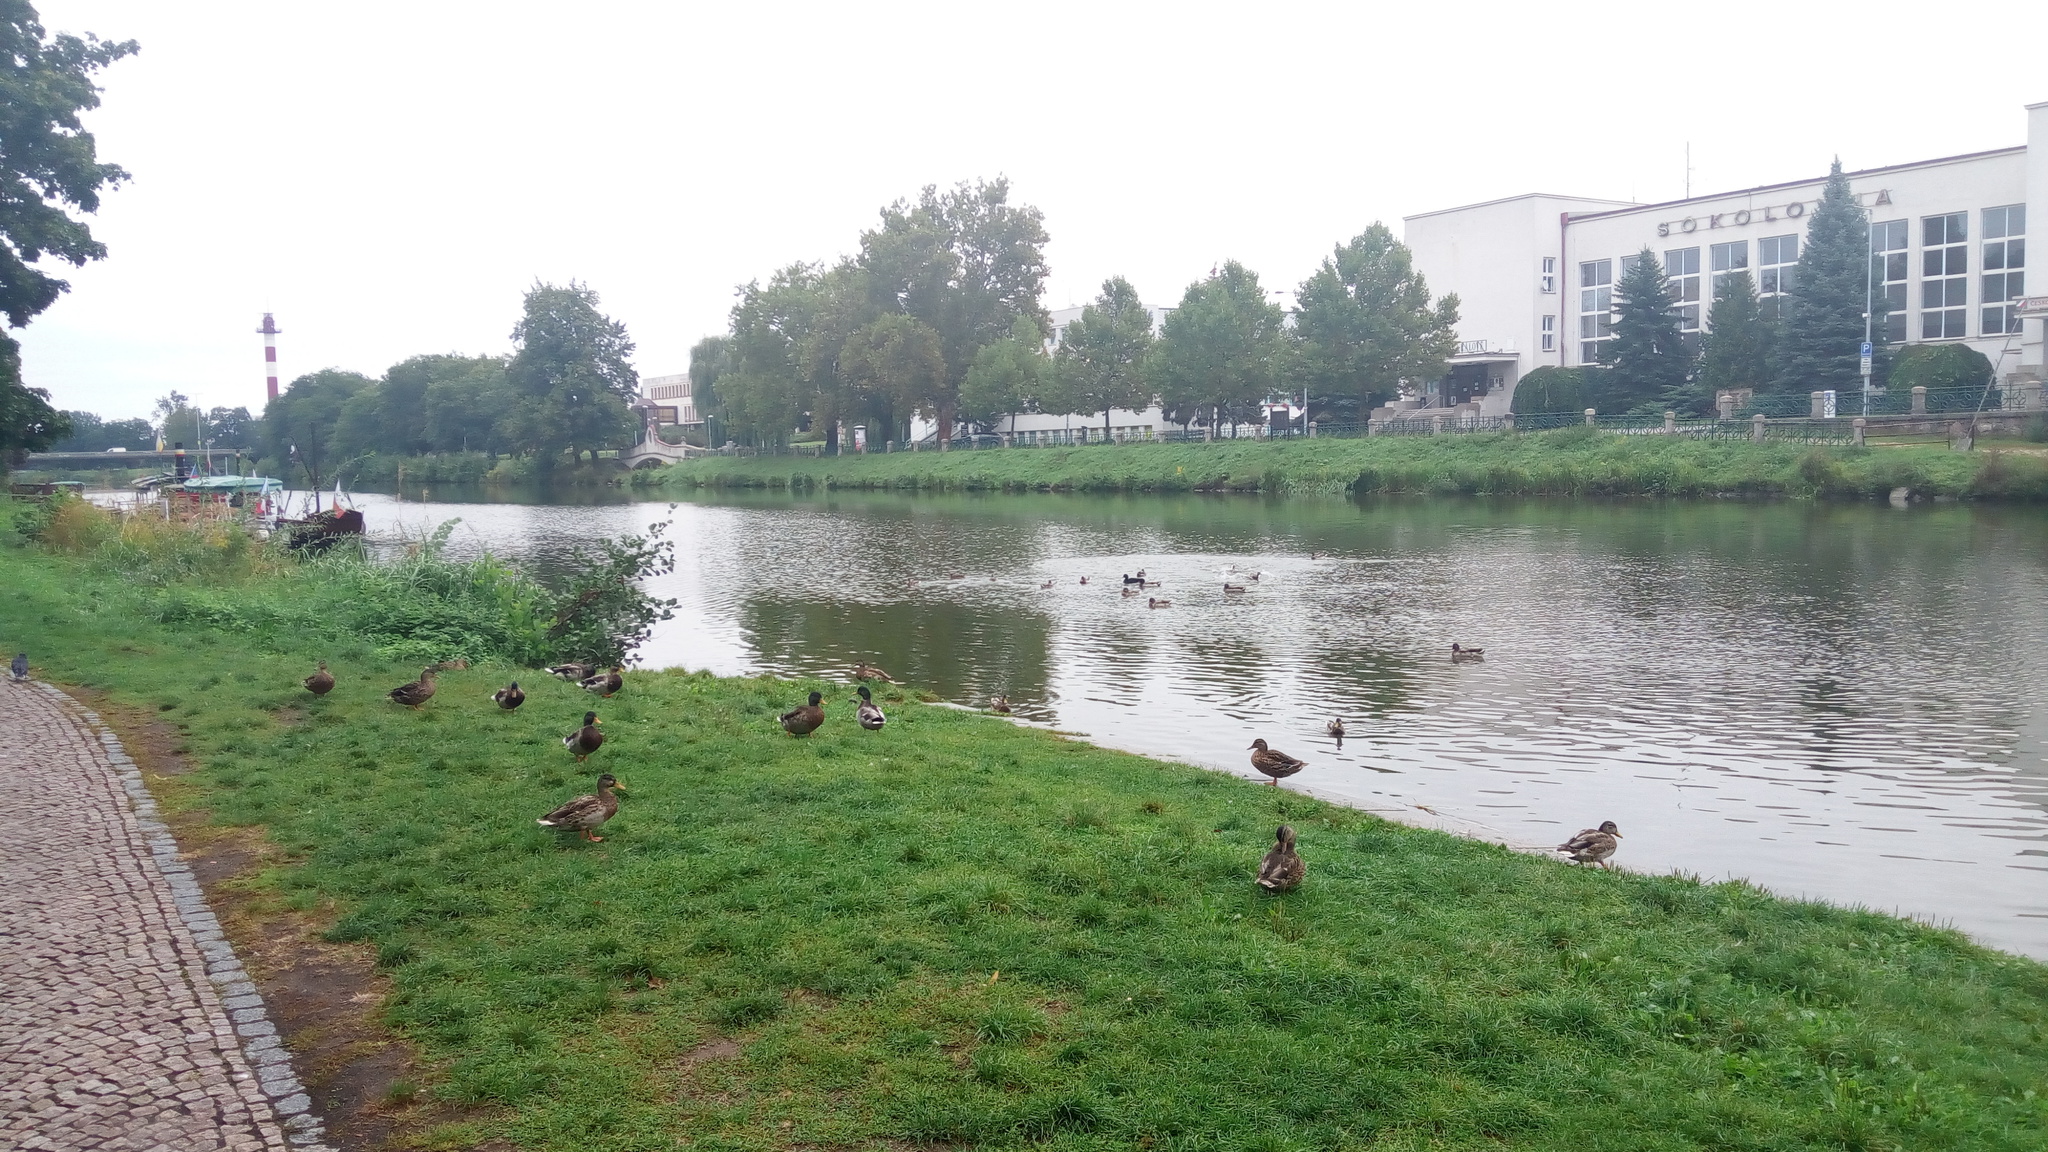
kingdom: Animalia
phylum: Chordata
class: Aves
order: Anseriformes
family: Anatidae
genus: Anas
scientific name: Anas platyrhynchos
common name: Mallard
